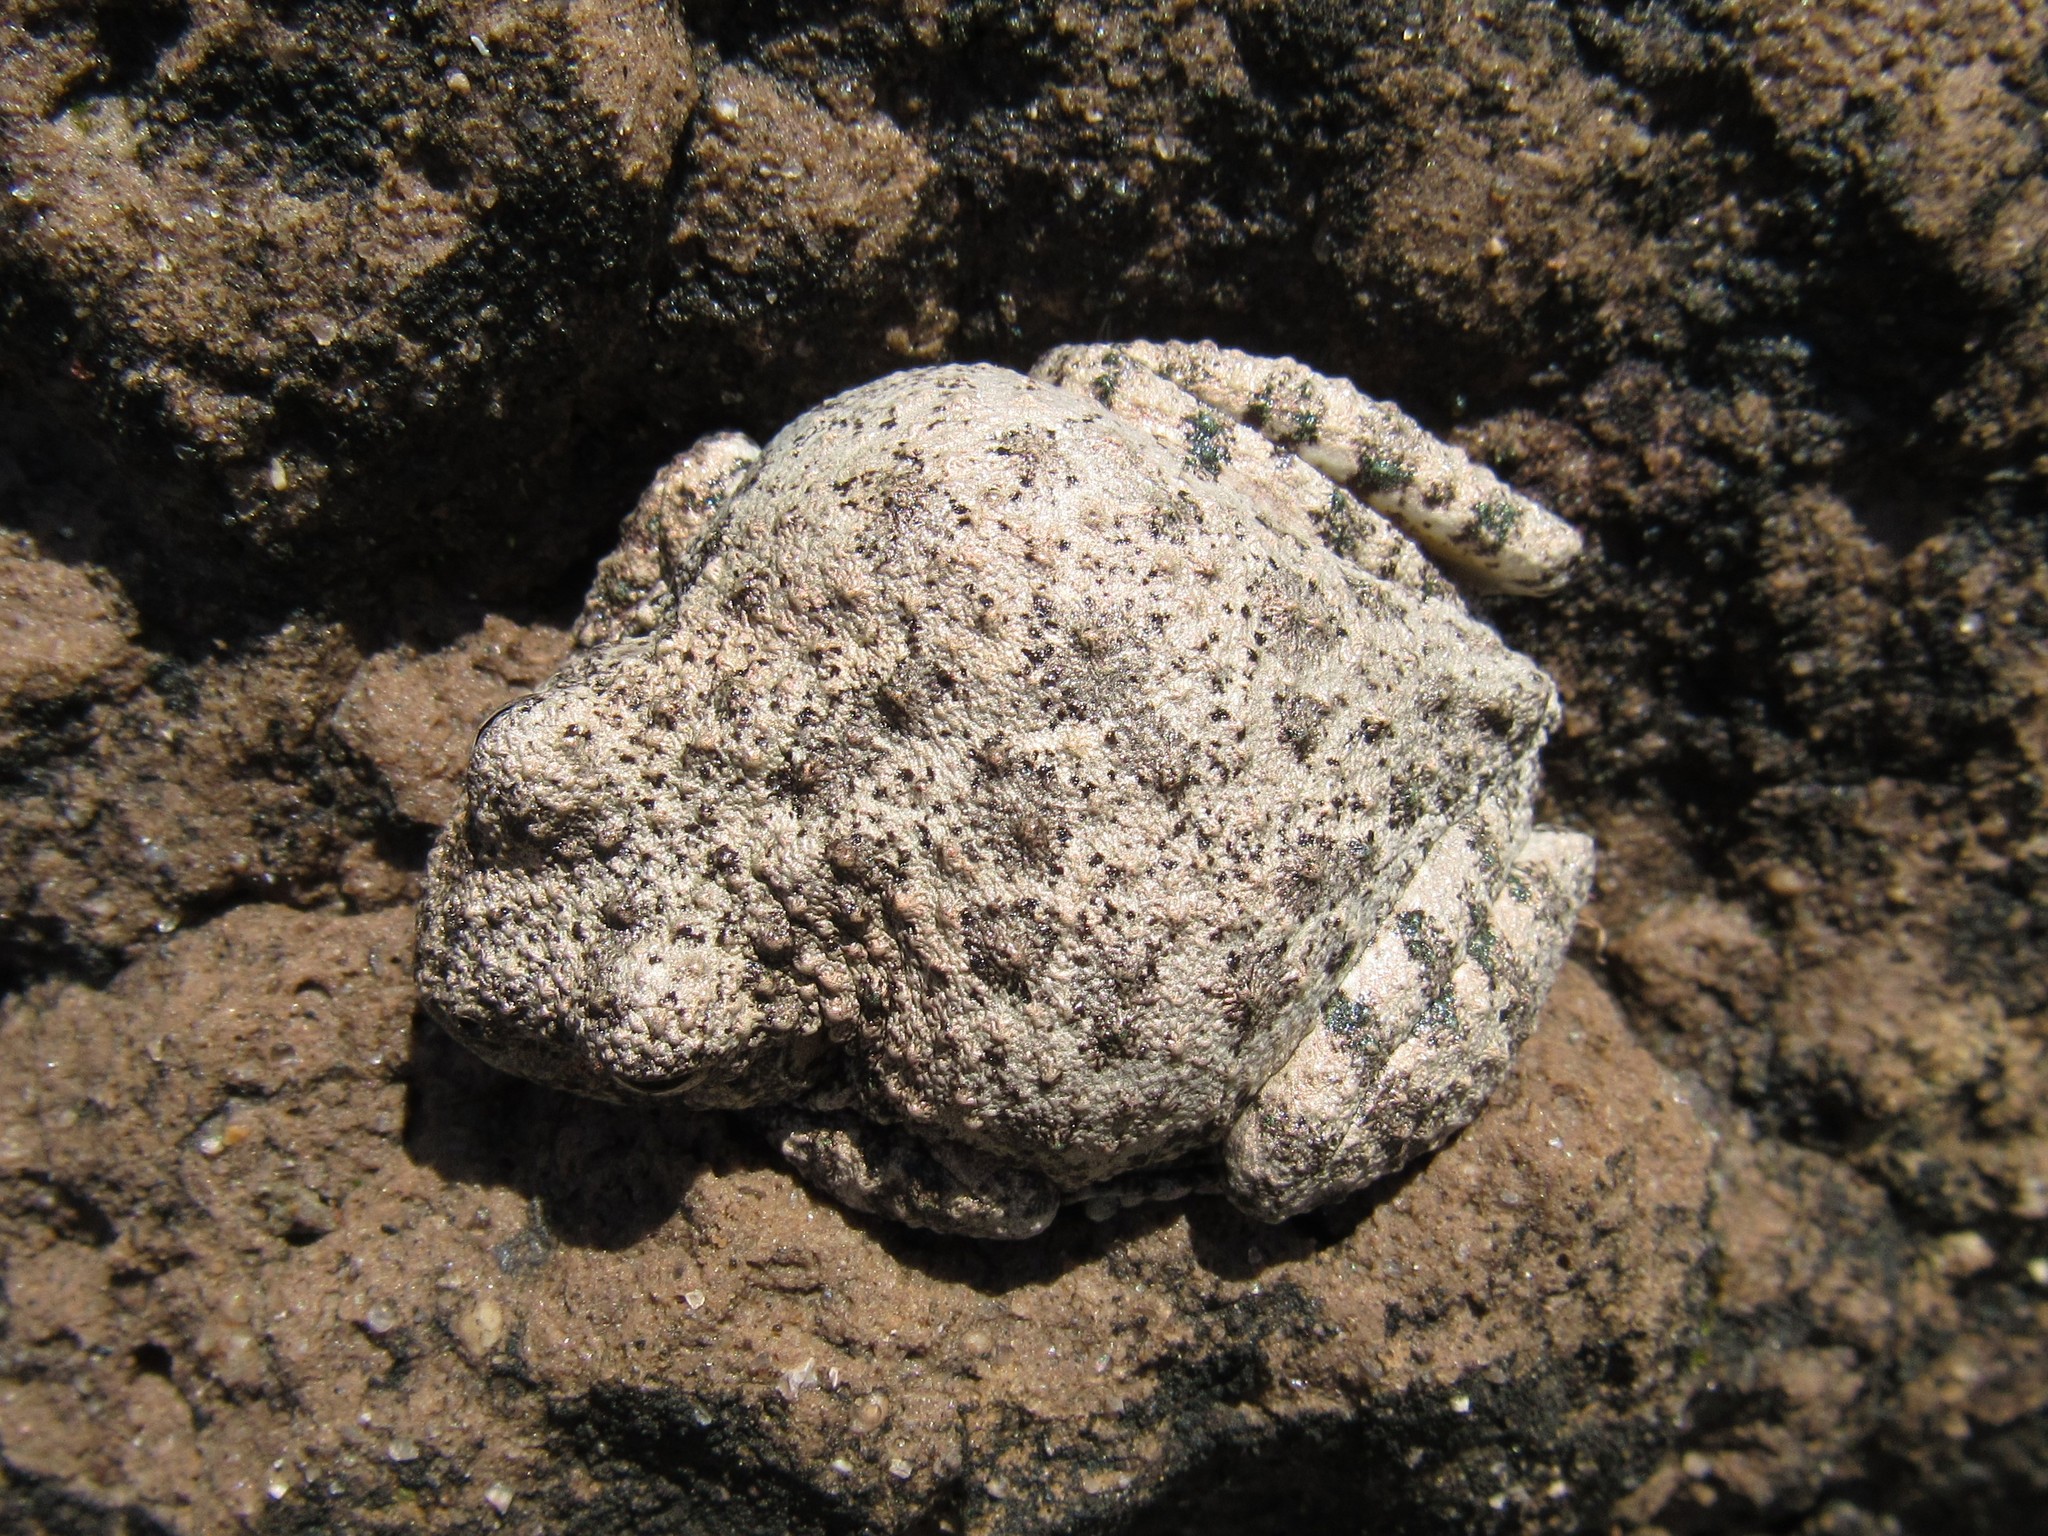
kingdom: Animalia
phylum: Chordata
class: Amphibia
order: Anura
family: Hylidae
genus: Dryophytes
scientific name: Dryophytes arenicolor
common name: Canyon treefrog
